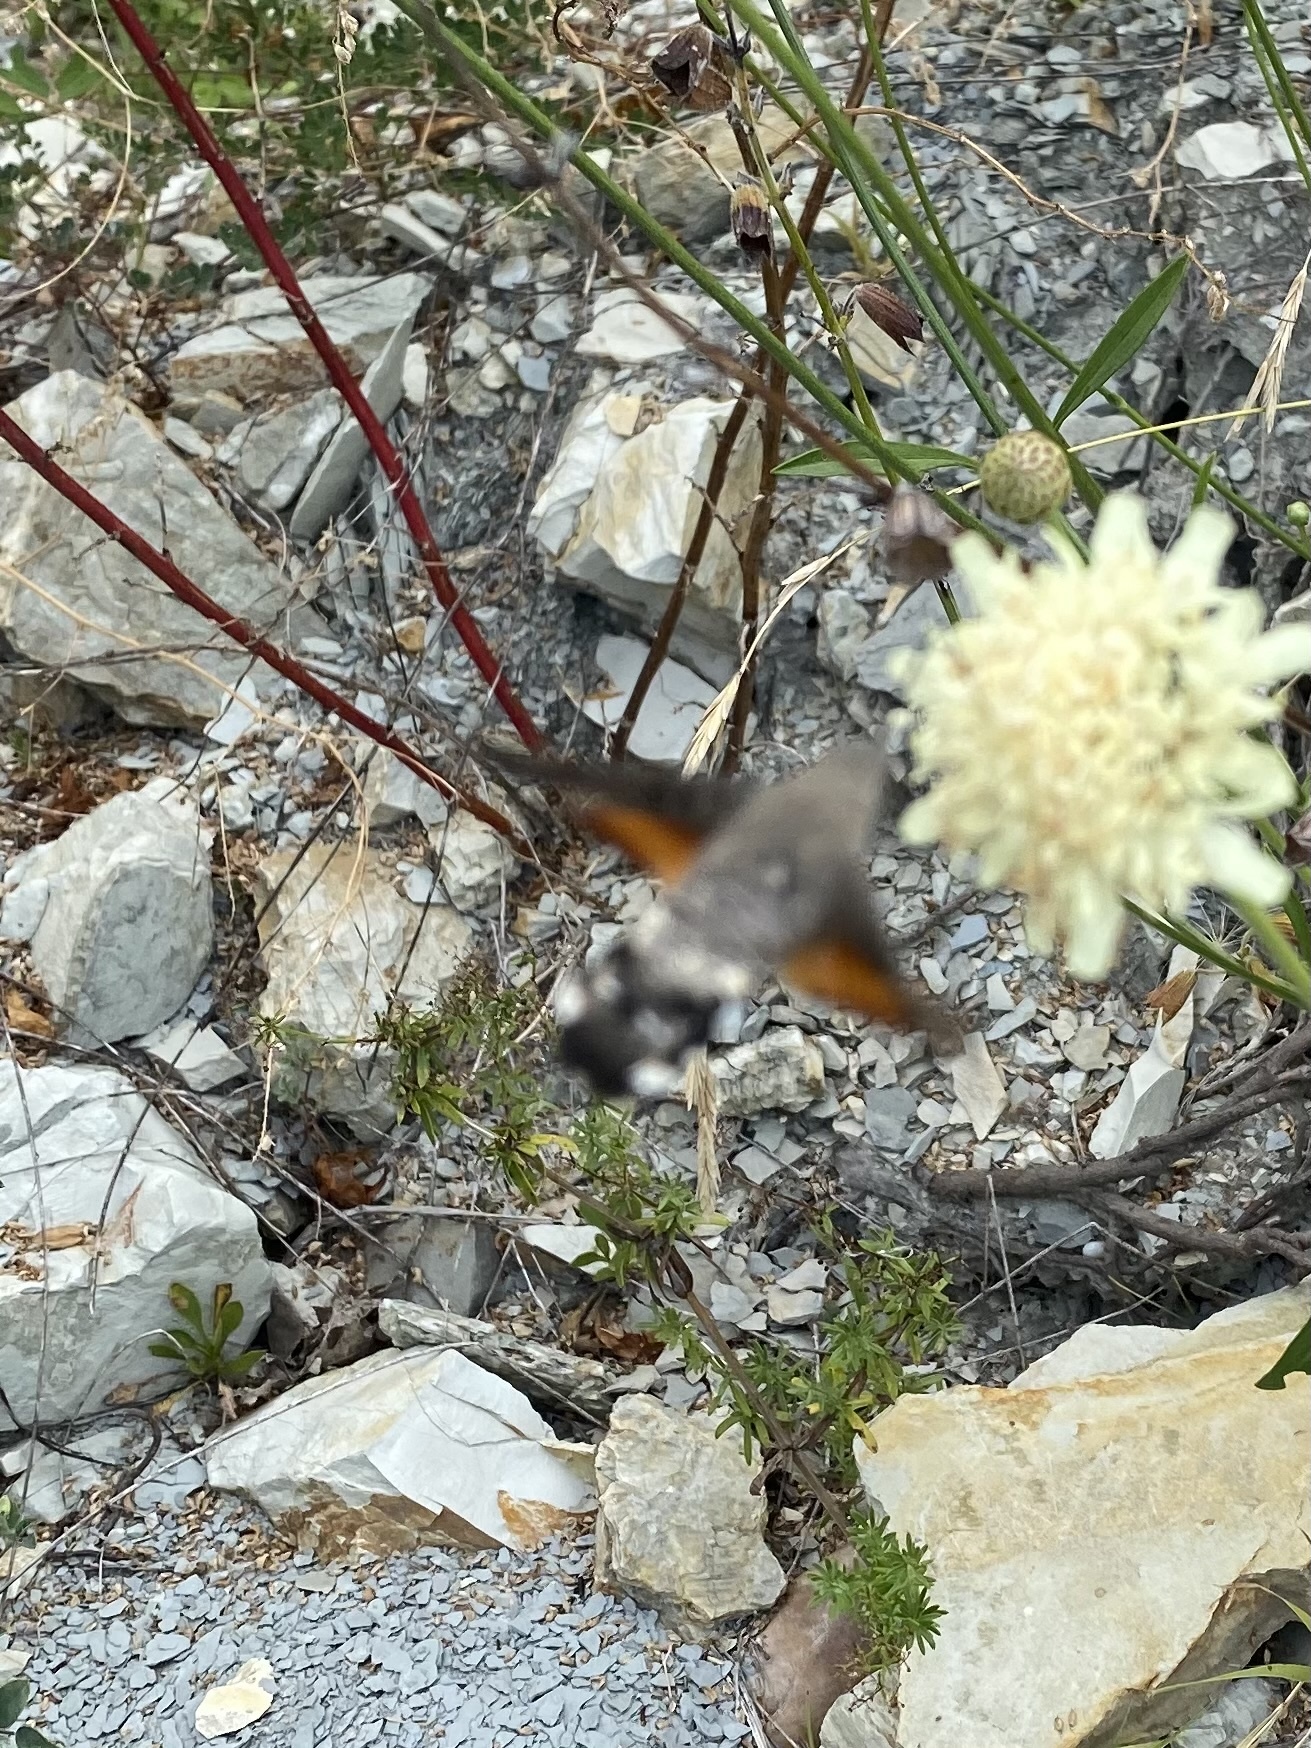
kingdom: Animalia
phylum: Arthropoda
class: Insecta
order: Lepidoptera
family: Sphingidae
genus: Macroglossum
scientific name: Macroglossum stellatarum
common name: Humming-bird hawk-moth
